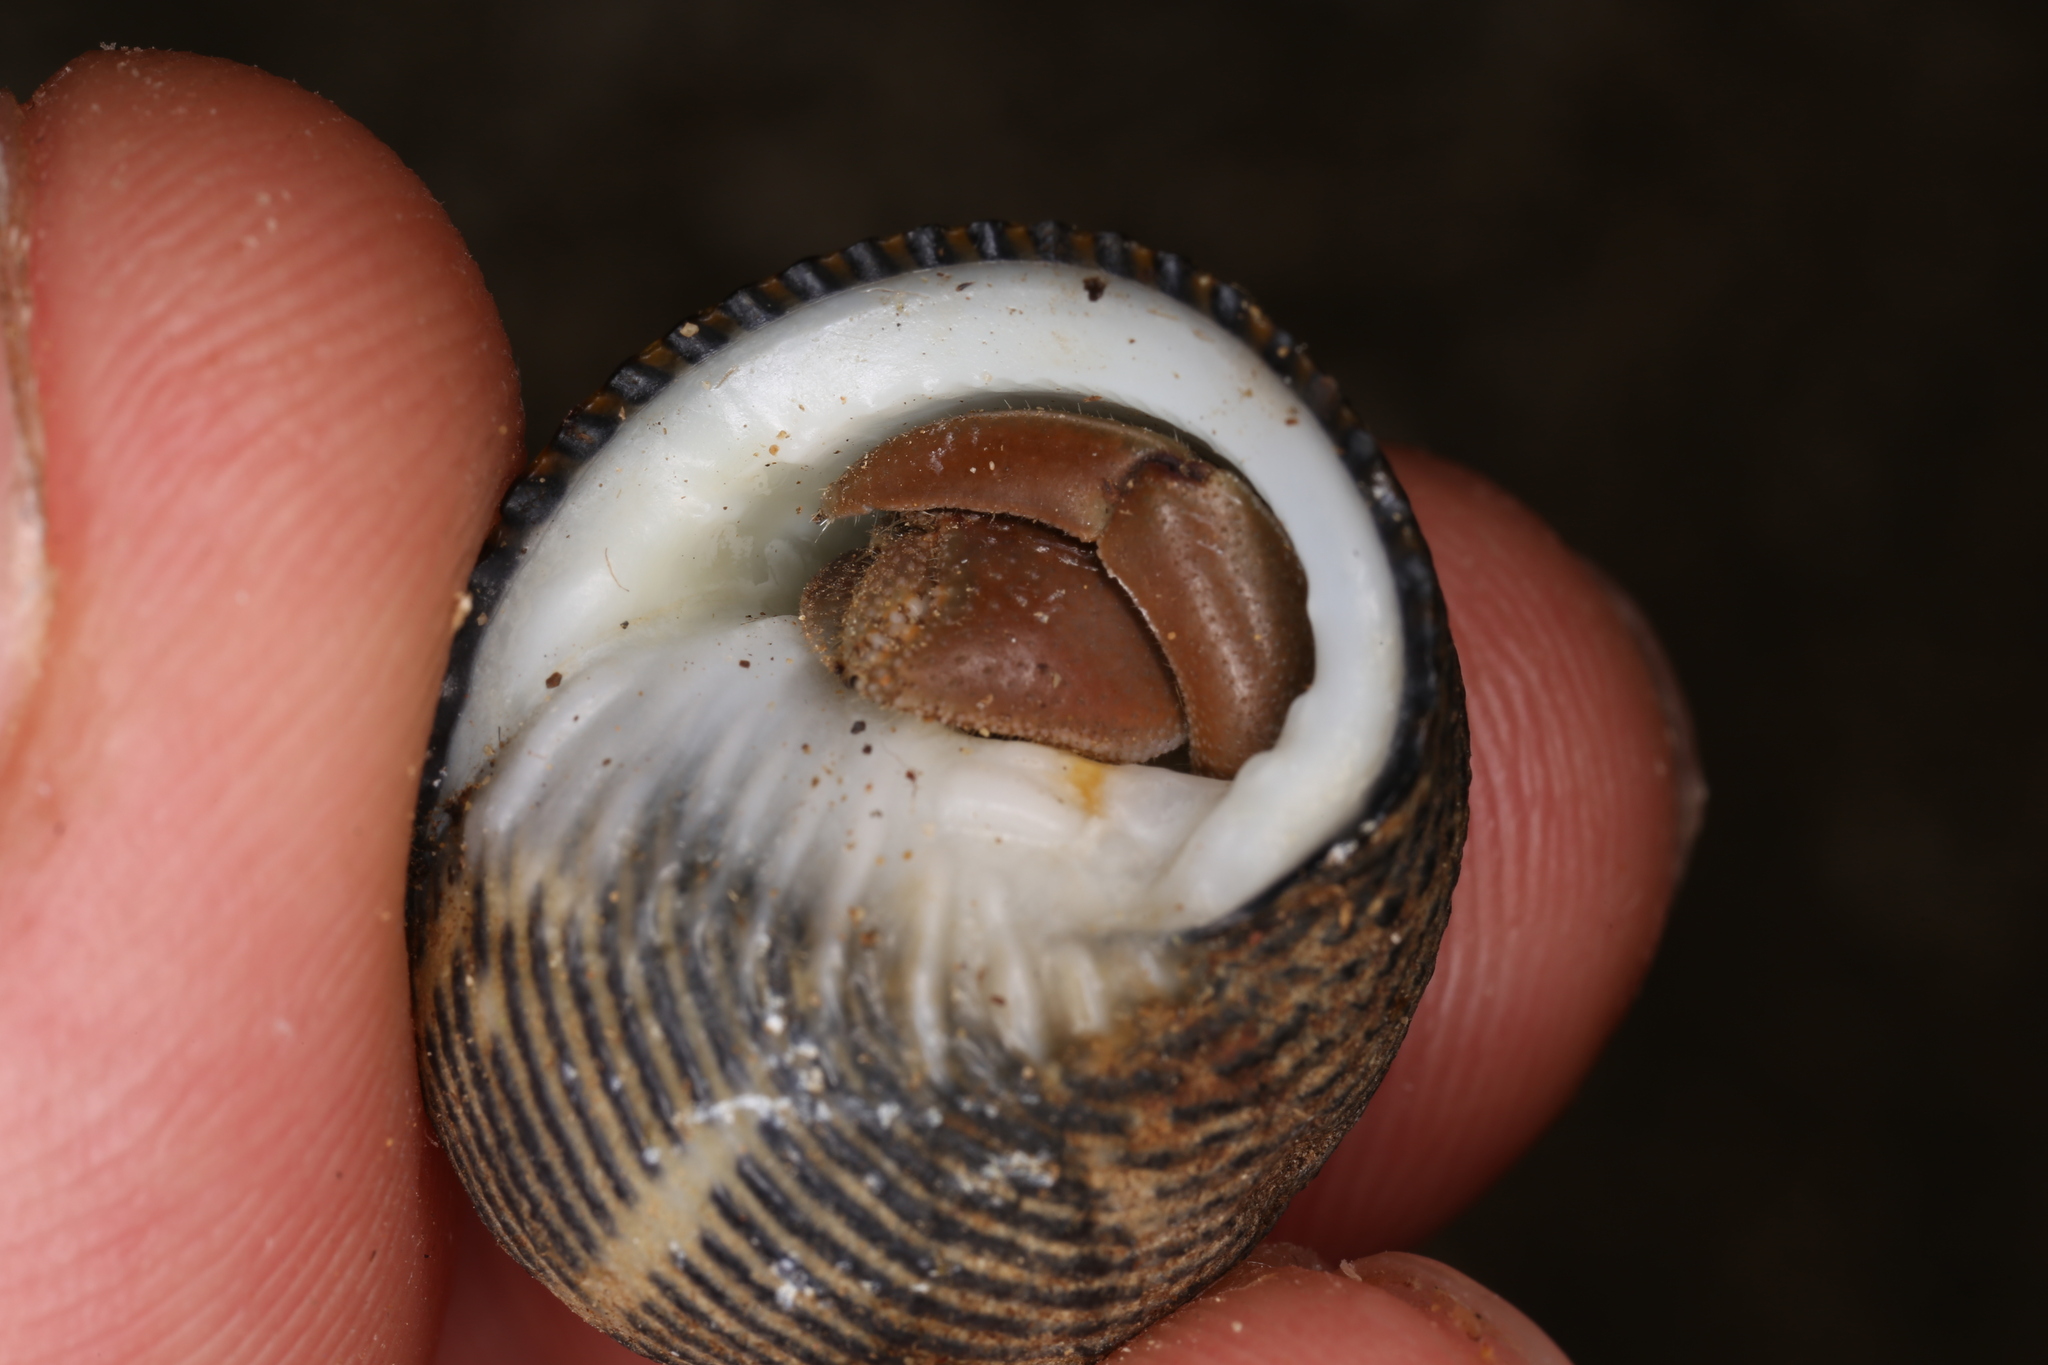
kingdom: Animalia
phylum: Arthropoda
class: Malacostraca
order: Decapoda
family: Coenobitidae
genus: Coenobita
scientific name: Coenobita compressus
